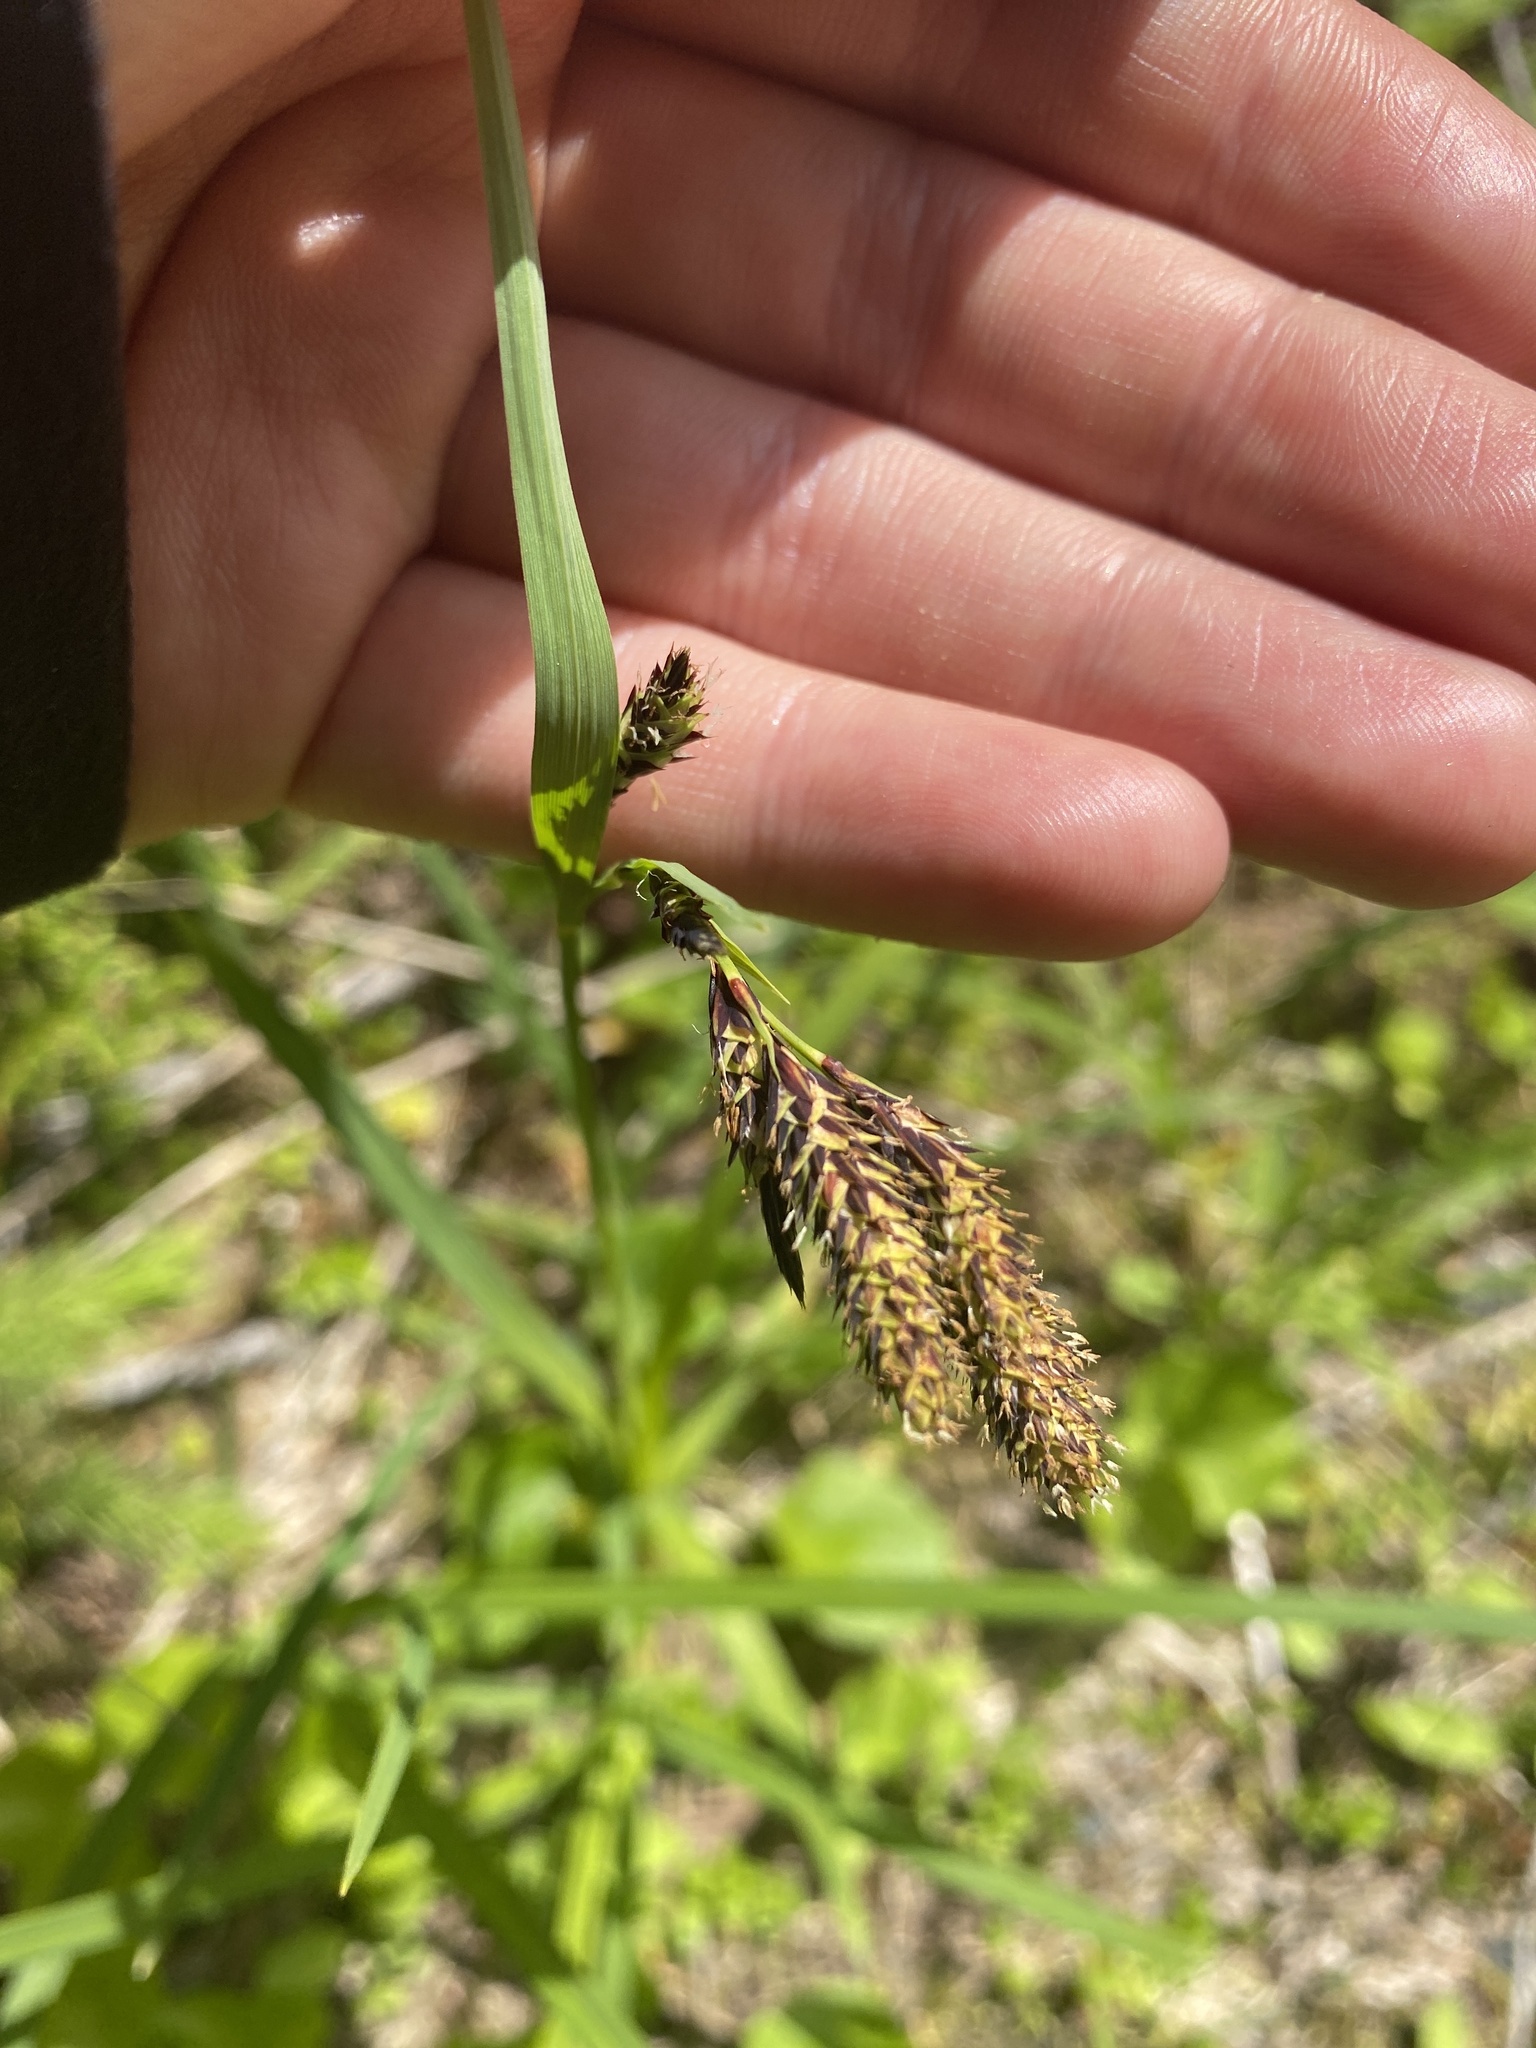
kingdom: Plantae
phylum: Tracheophyta
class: Liliopsida
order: Poales
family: Cyperaceae
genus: Carex
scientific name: Carex mertensii
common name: Mertens' sedge
